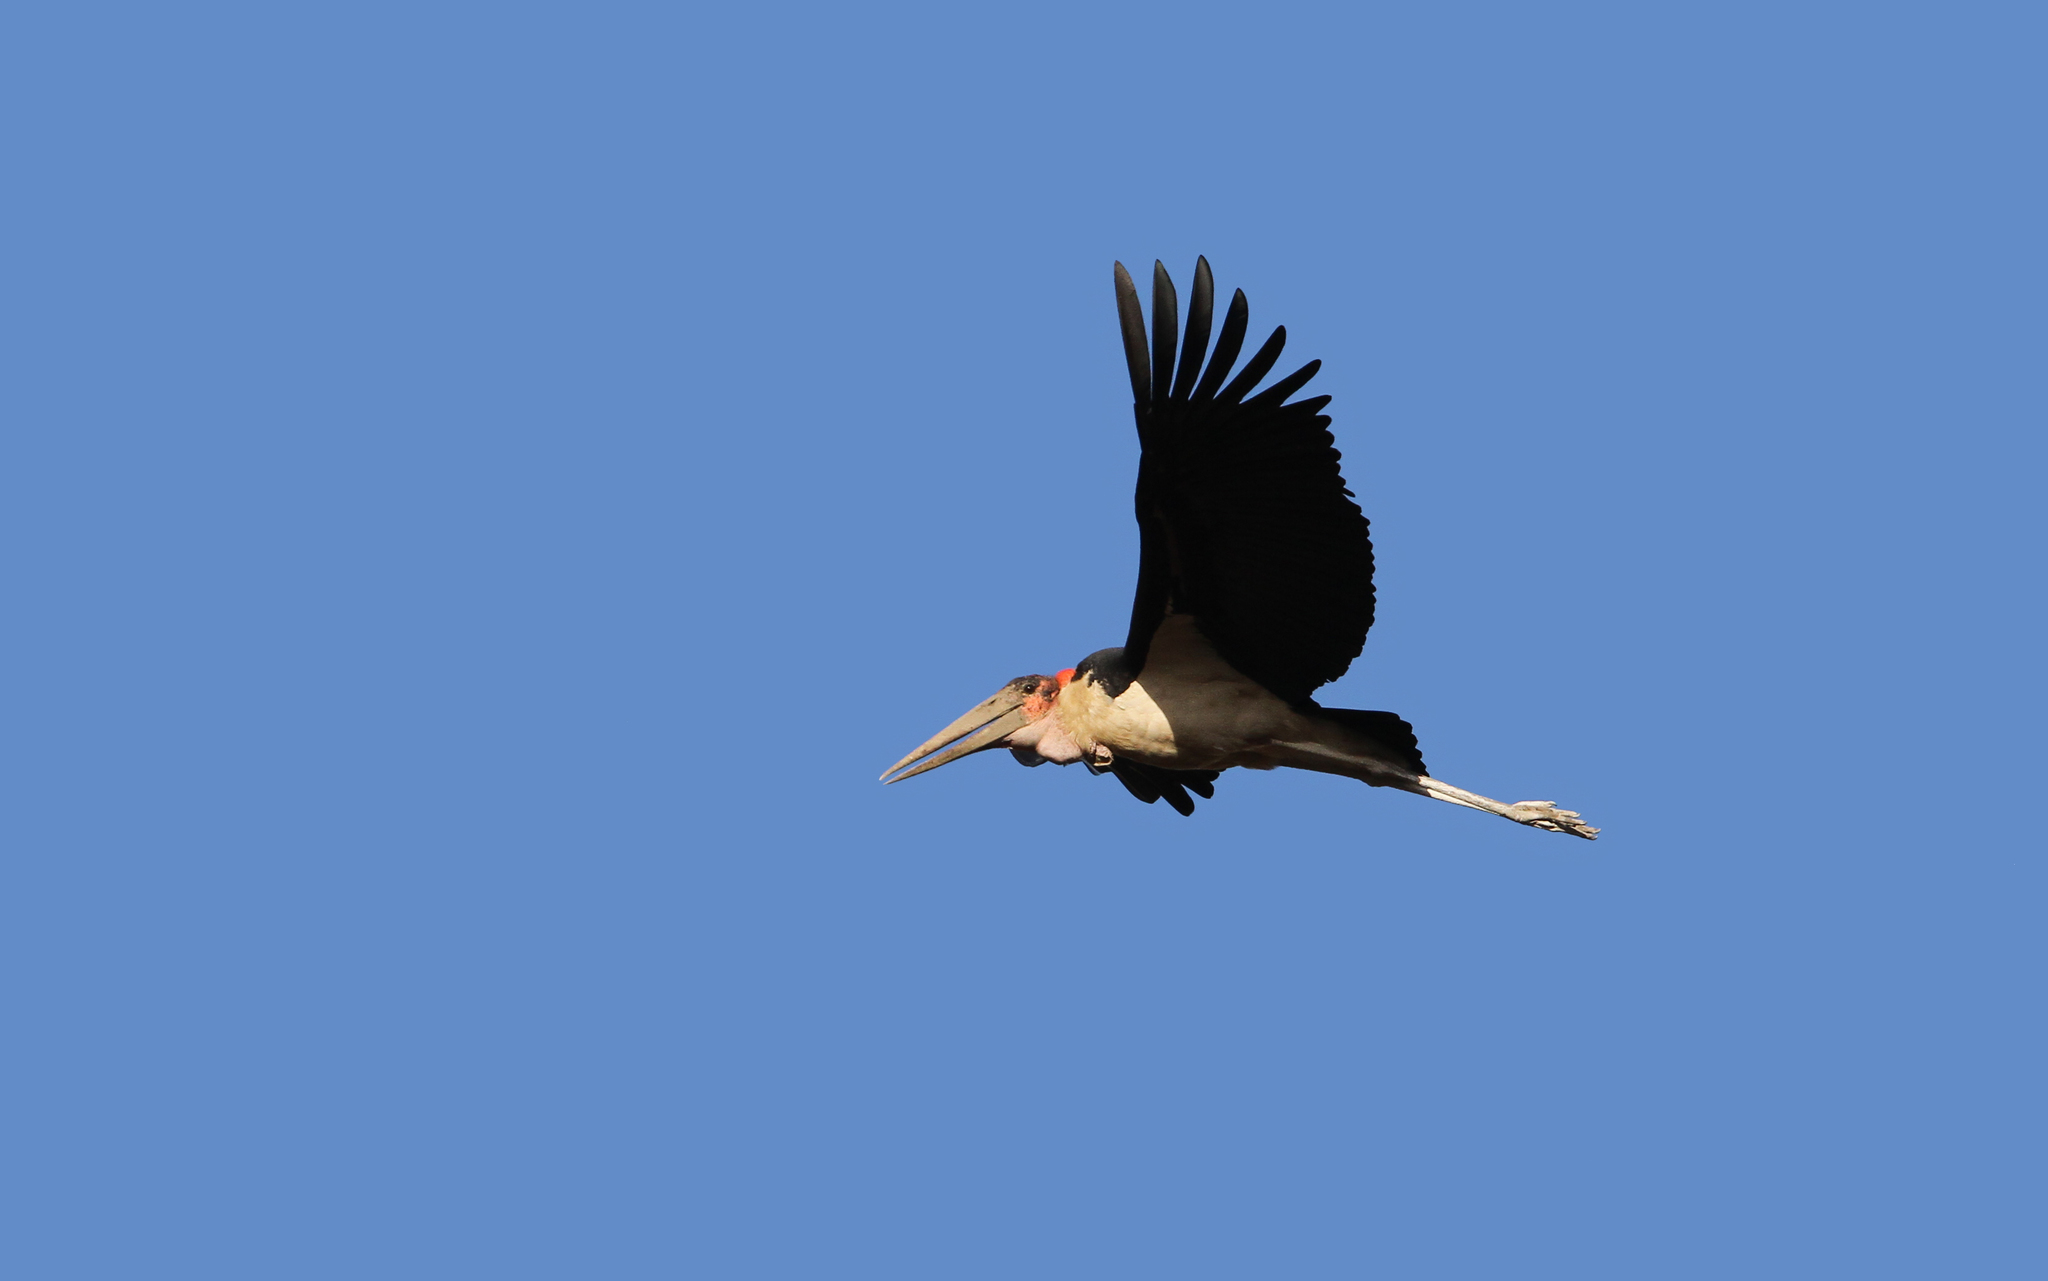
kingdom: Animalia
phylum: Chordata
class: Aves
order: Ciconiiformes
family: Ciconiidae
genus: Leptoptilos
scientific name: Leptoptilos crumenifer
